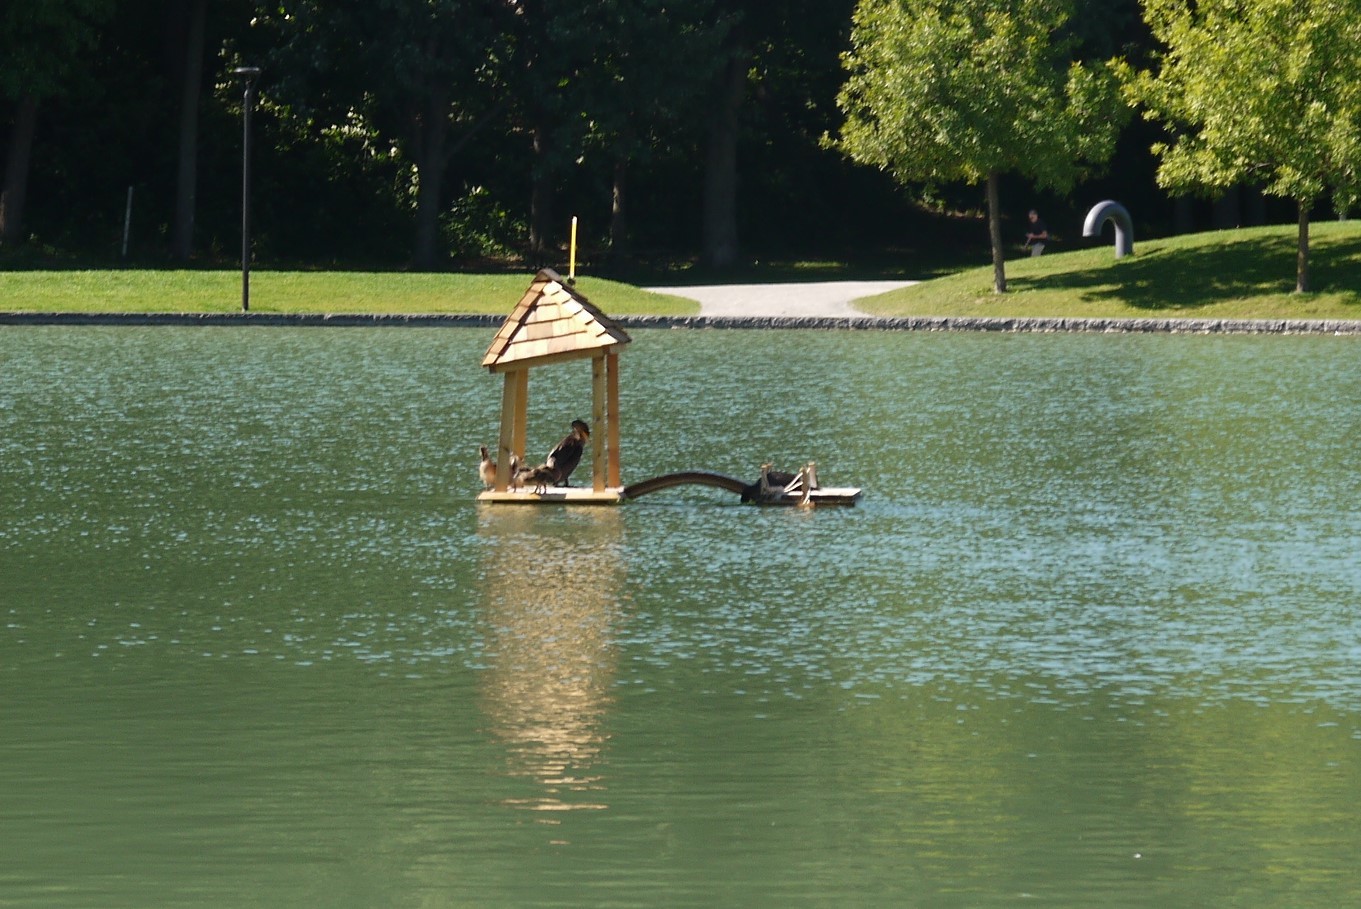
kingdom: Animalia
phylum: Chordata
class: Aves
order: Suliformes
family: Phalacrocoracidae
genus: Phalacrocorax
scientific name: Phalacrocorax auritus
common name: Double-crested cormorant
